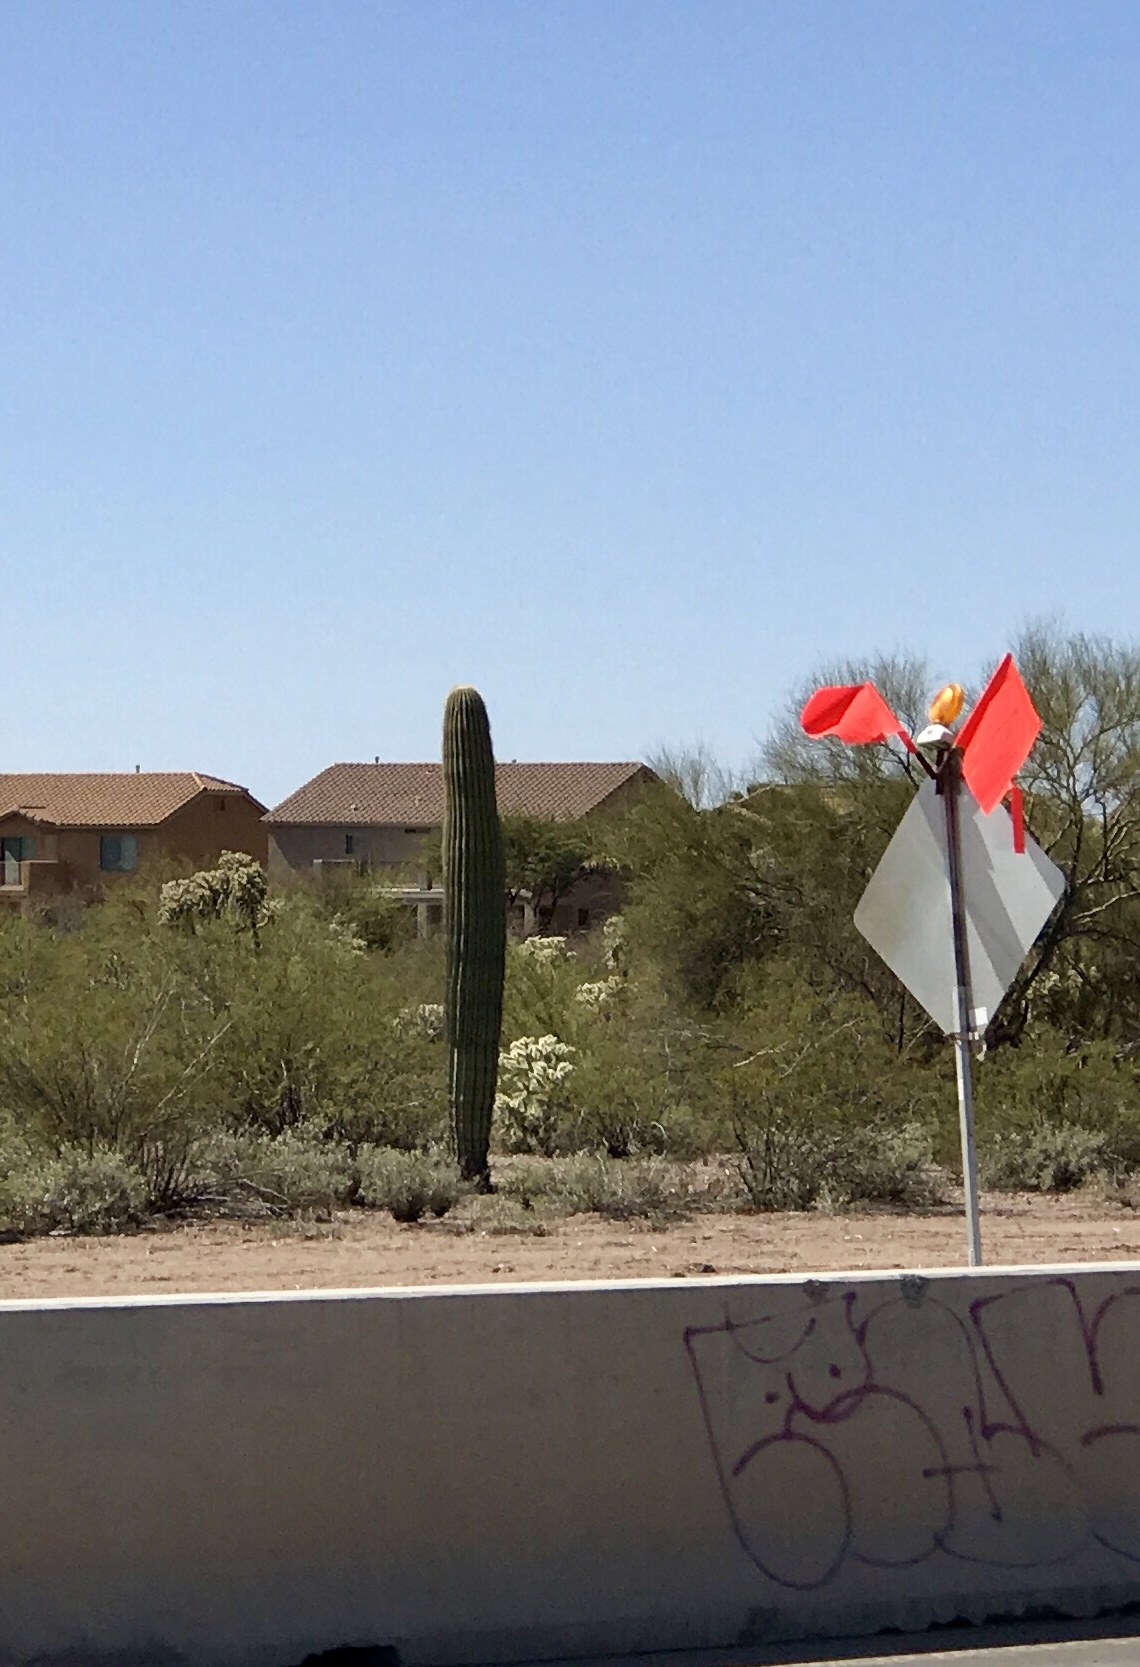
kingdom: Plantae
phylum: Tracheophyta
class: Magnoliopsida
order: Caryophyllales
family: Cactaceae
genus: Carnegiea
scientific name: Carnegiea gigantea
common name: Saguaro
